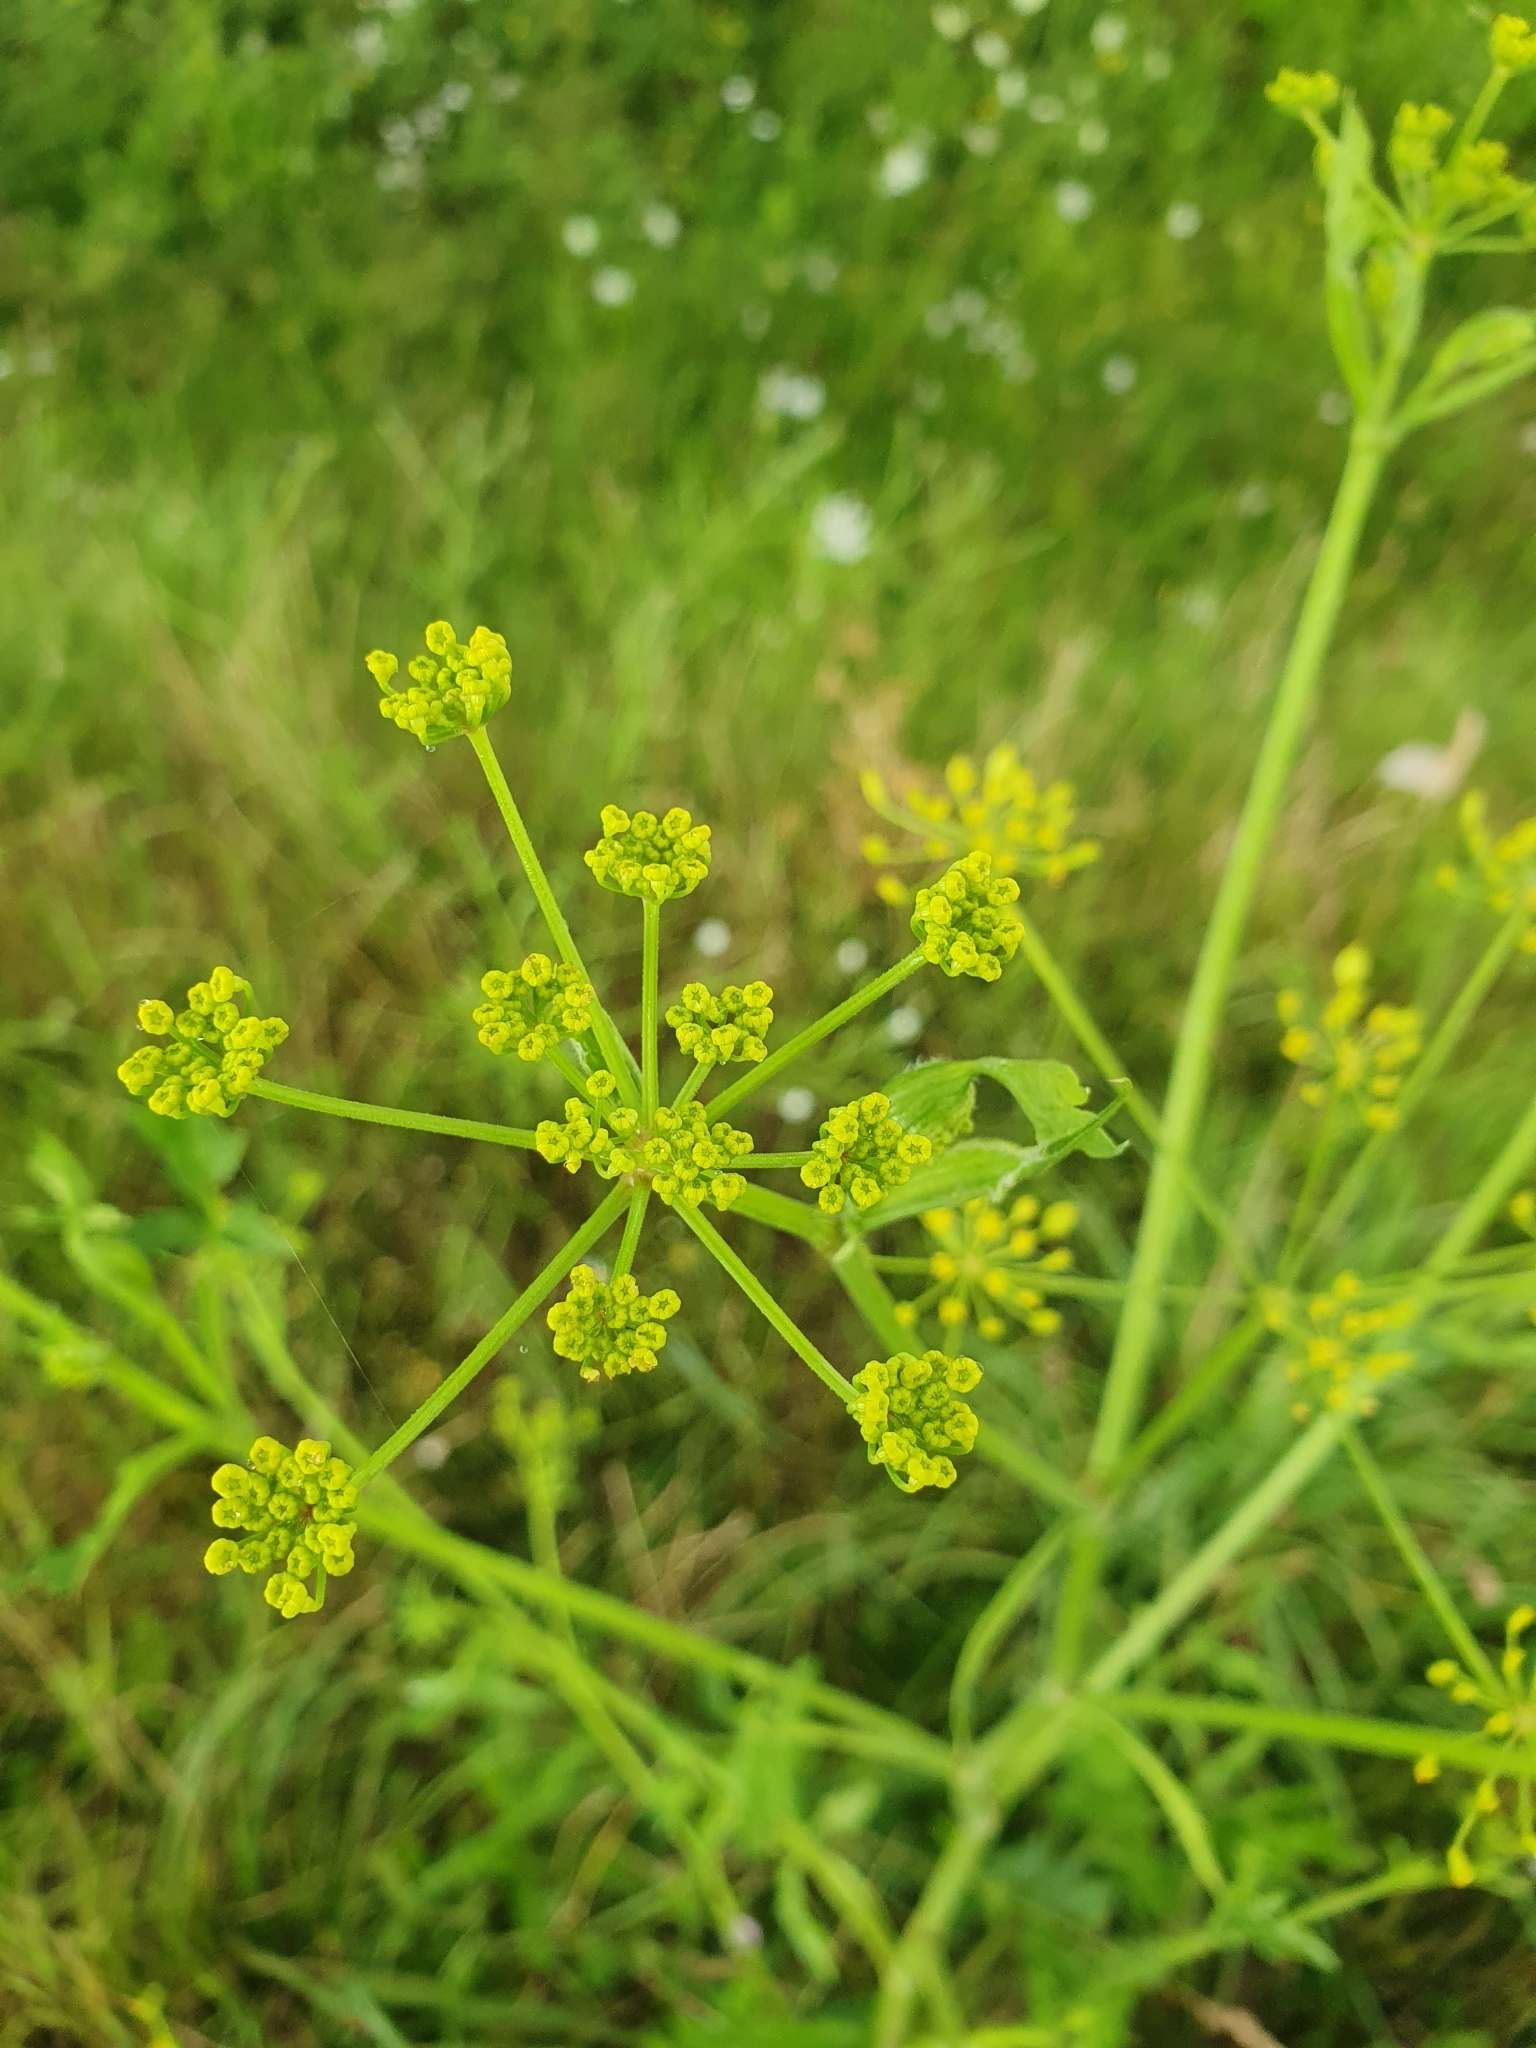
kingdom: Plantae
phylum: Tracheophyta
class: Magnoliopsida
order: Apiales
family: Apiaceae
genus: Pastinaca
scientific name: Pastinaca sativa
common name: Wild parsnip
